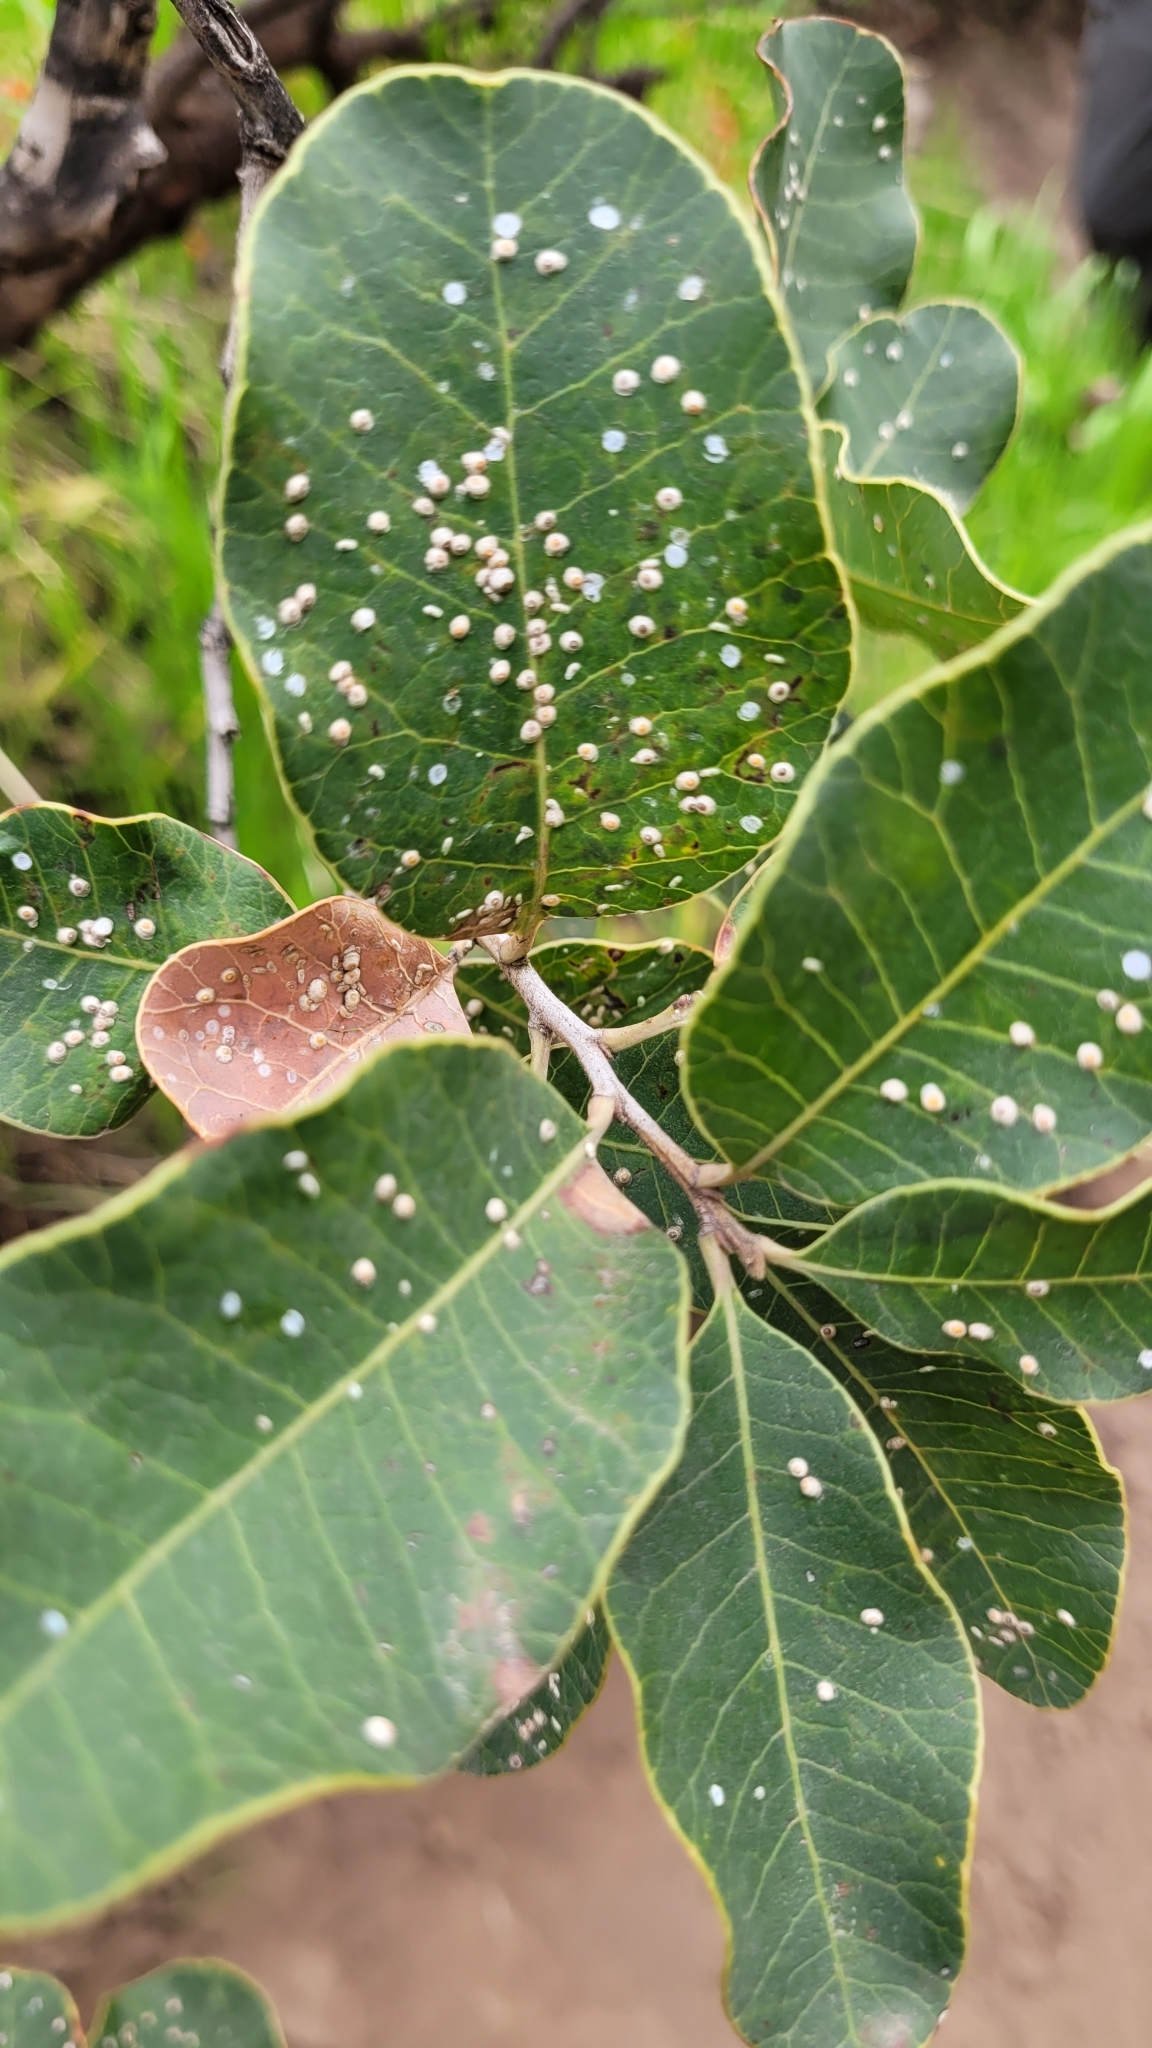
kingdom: Plantae
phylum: Tracheophyta
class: Magnoliopsida
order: Sapindales
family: Anacardiaceae
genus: Lithraea
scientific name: Lithraea caustica
